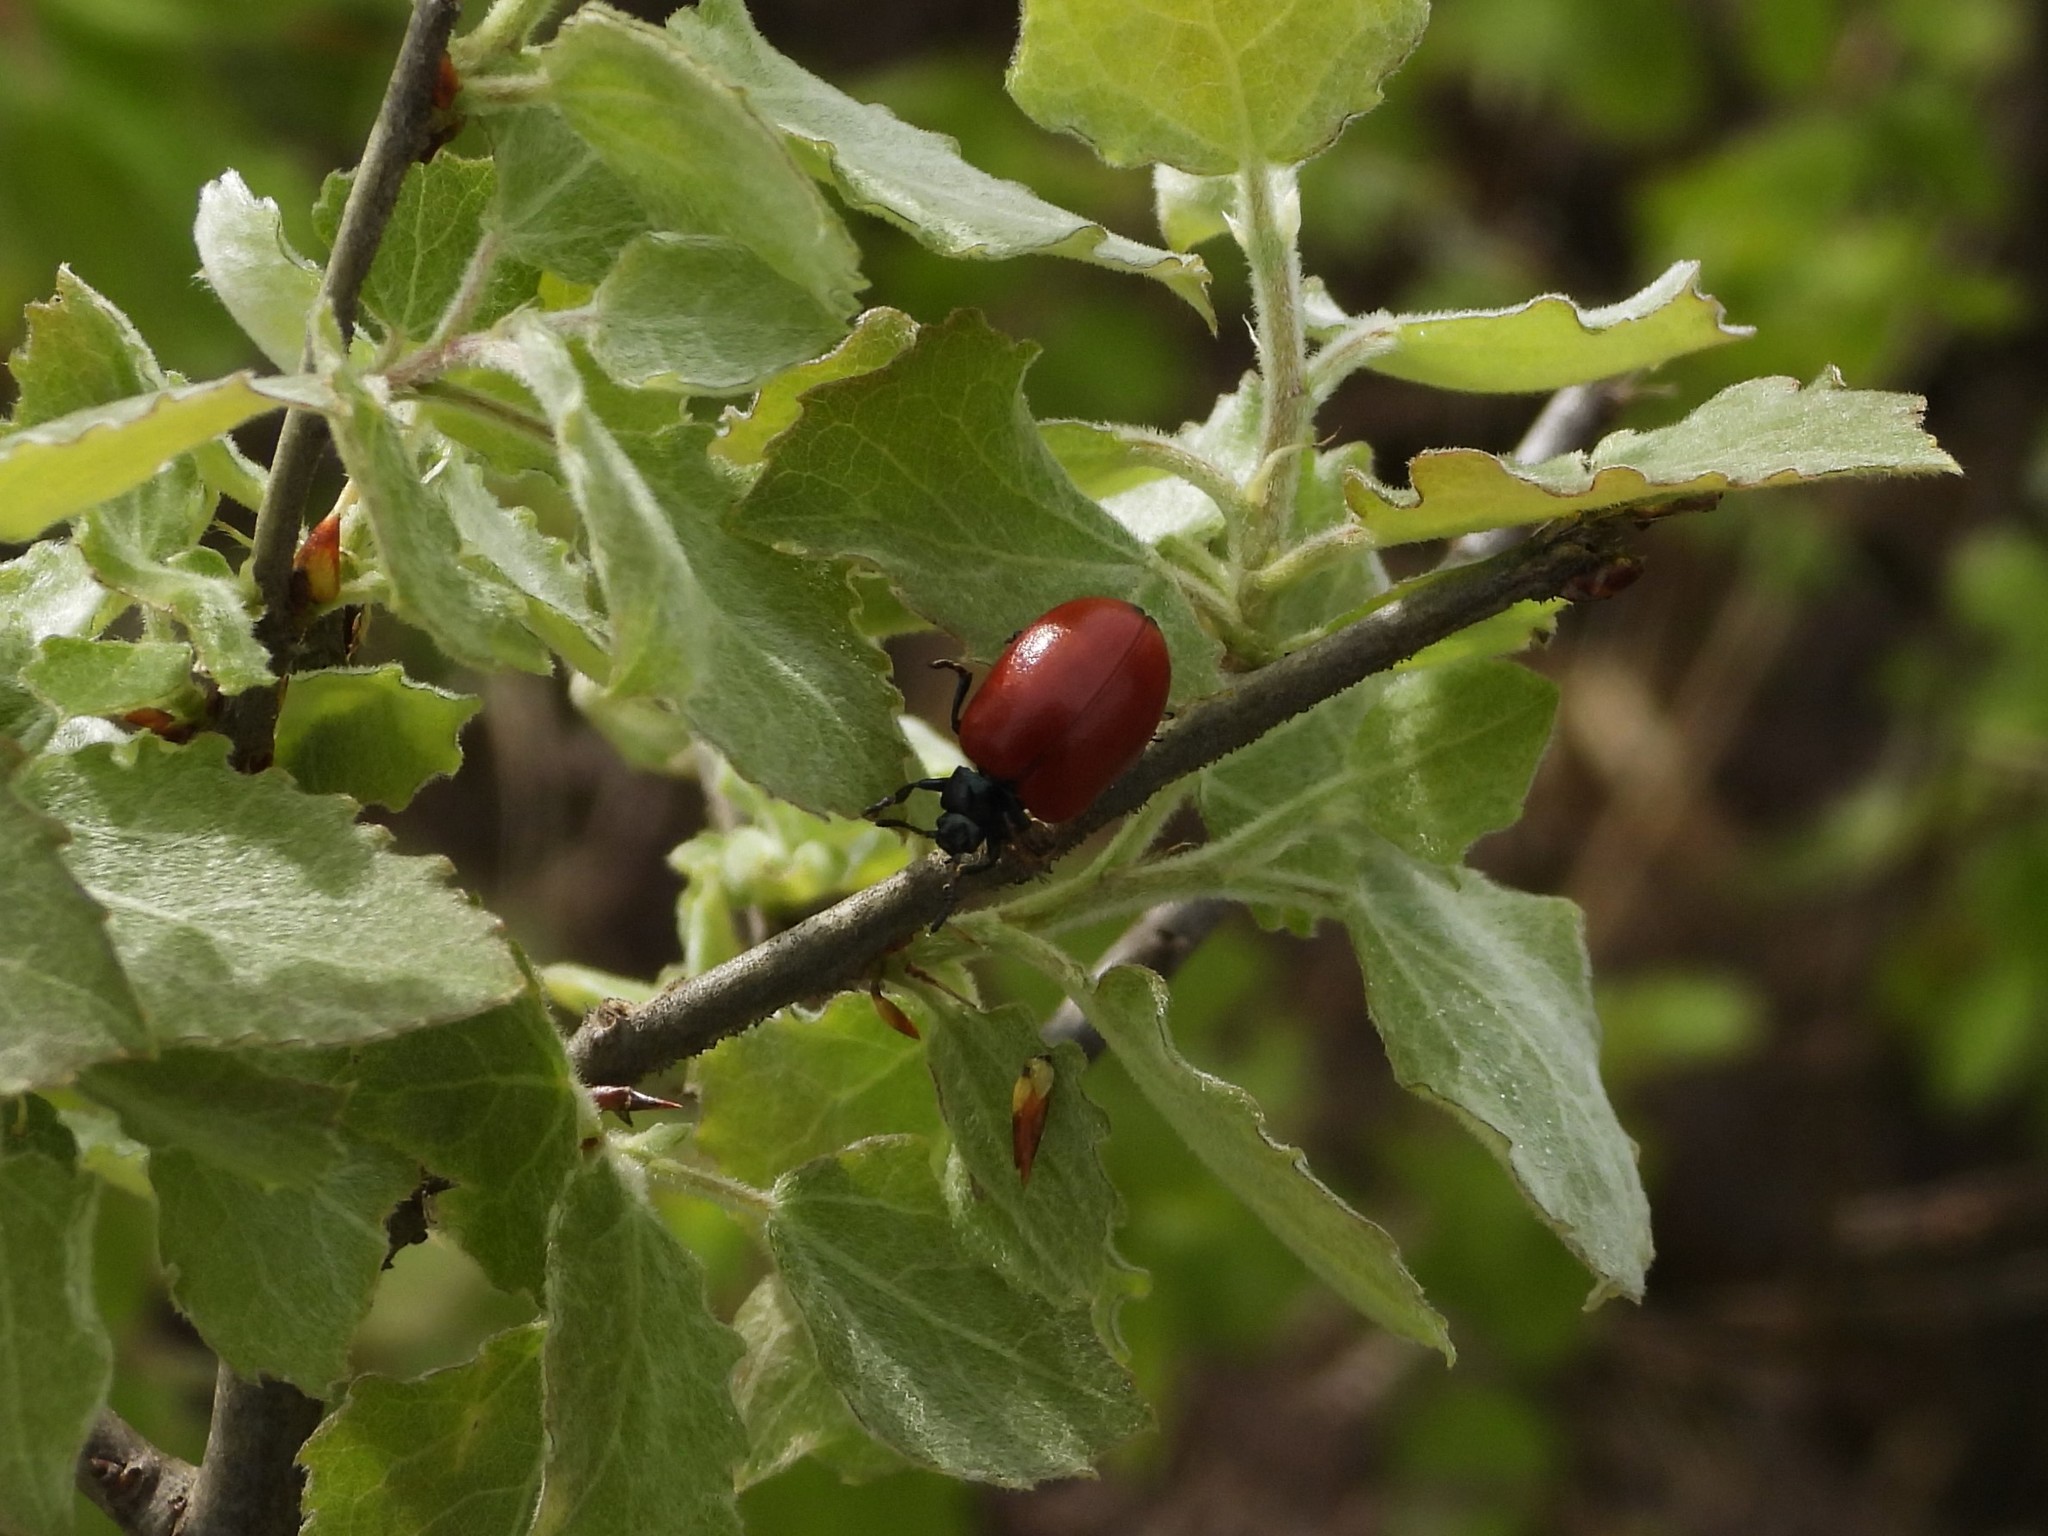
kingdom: Animalia
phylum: Arthropoda
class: Insecta
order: Coleoptera
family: Chrysomelidae
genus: Chrysomela
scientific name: Chrysomela populi
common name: Red poplar leaf beetle
